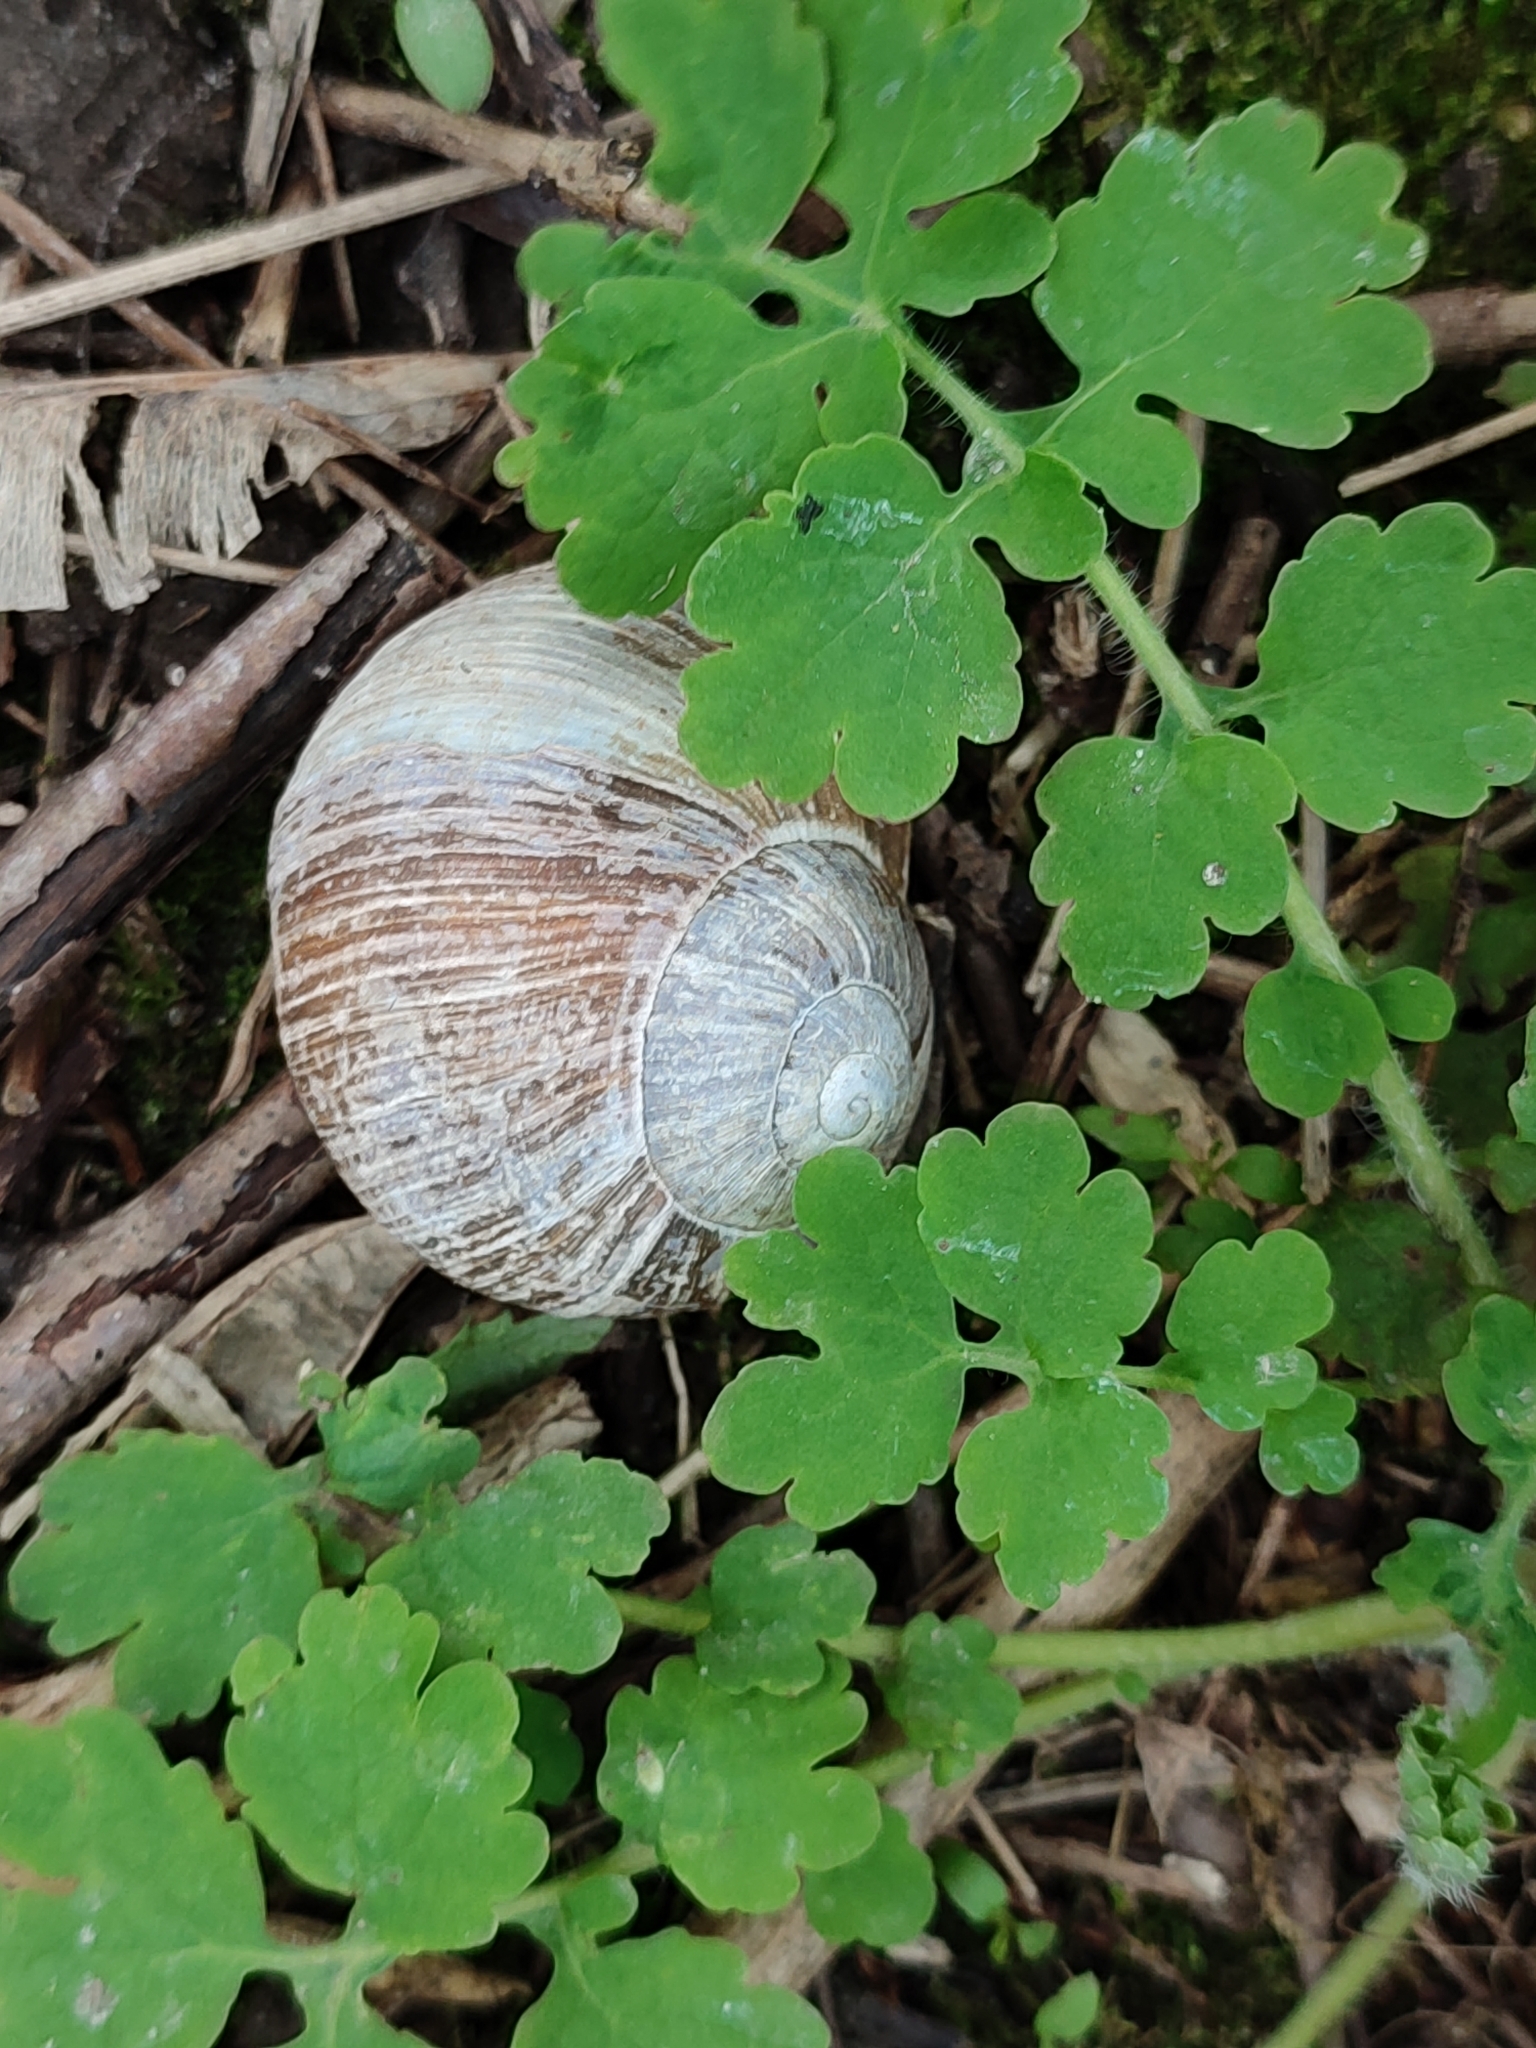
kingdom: Animalia
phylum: Mollusca
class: Gastropoda
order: Stylommatophora
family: Helicidae
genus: Helix
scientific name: Helix pomatia
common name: Roman snail
